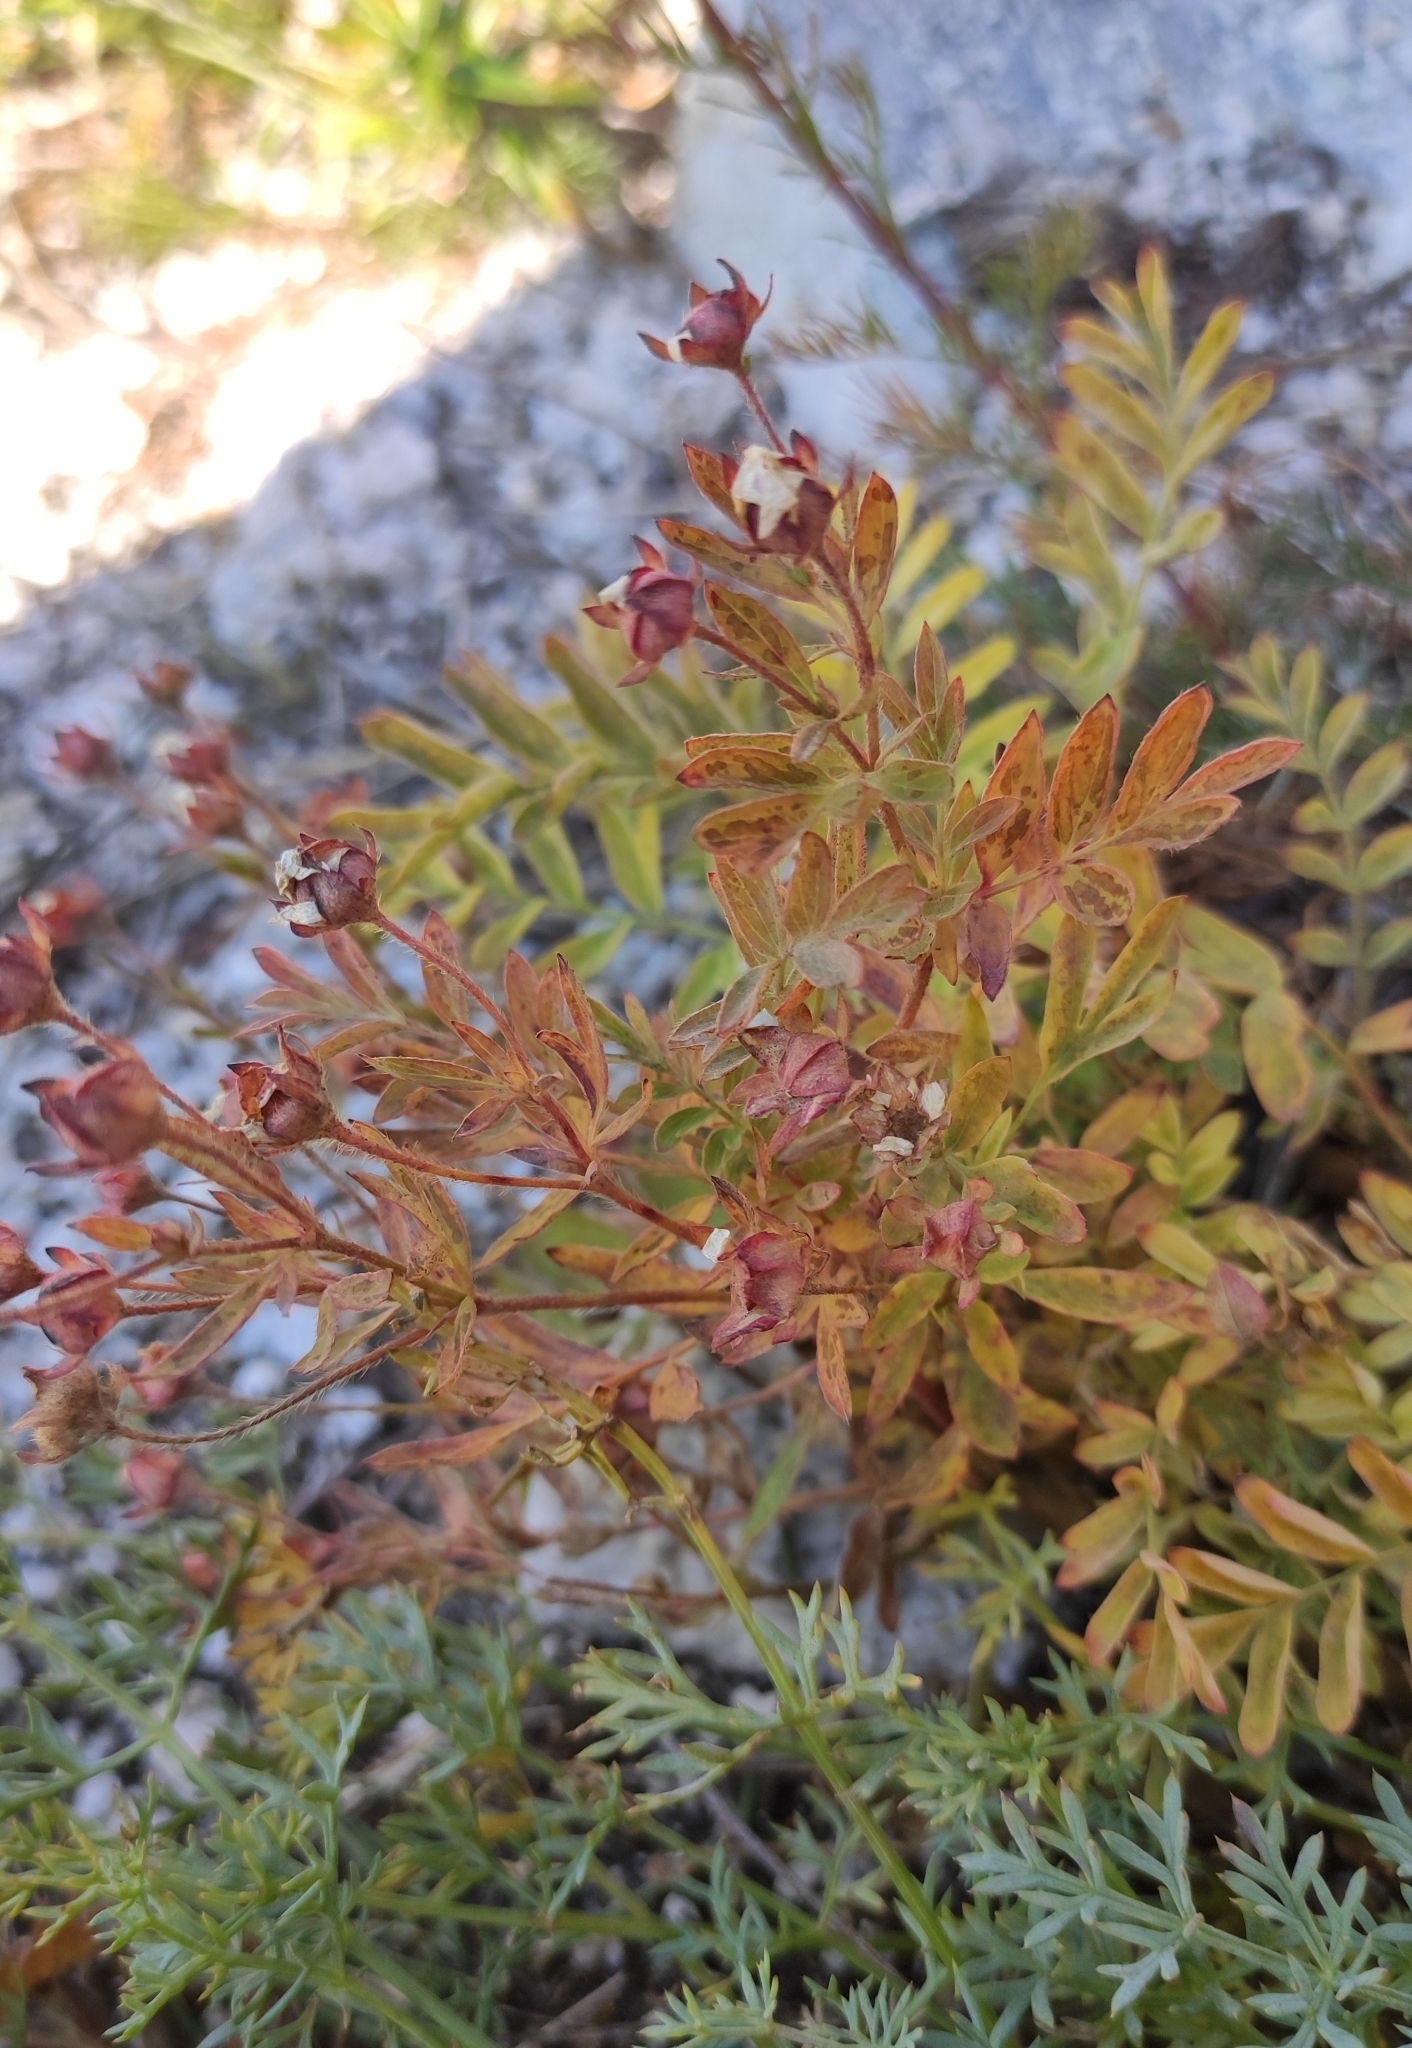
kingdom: Plantae
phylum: Tracheophyta
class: Magnoliopsida
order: Rosales
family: Rosaceae
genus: Sibbaldianthe
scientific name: Sibbaldianthe bifurca
